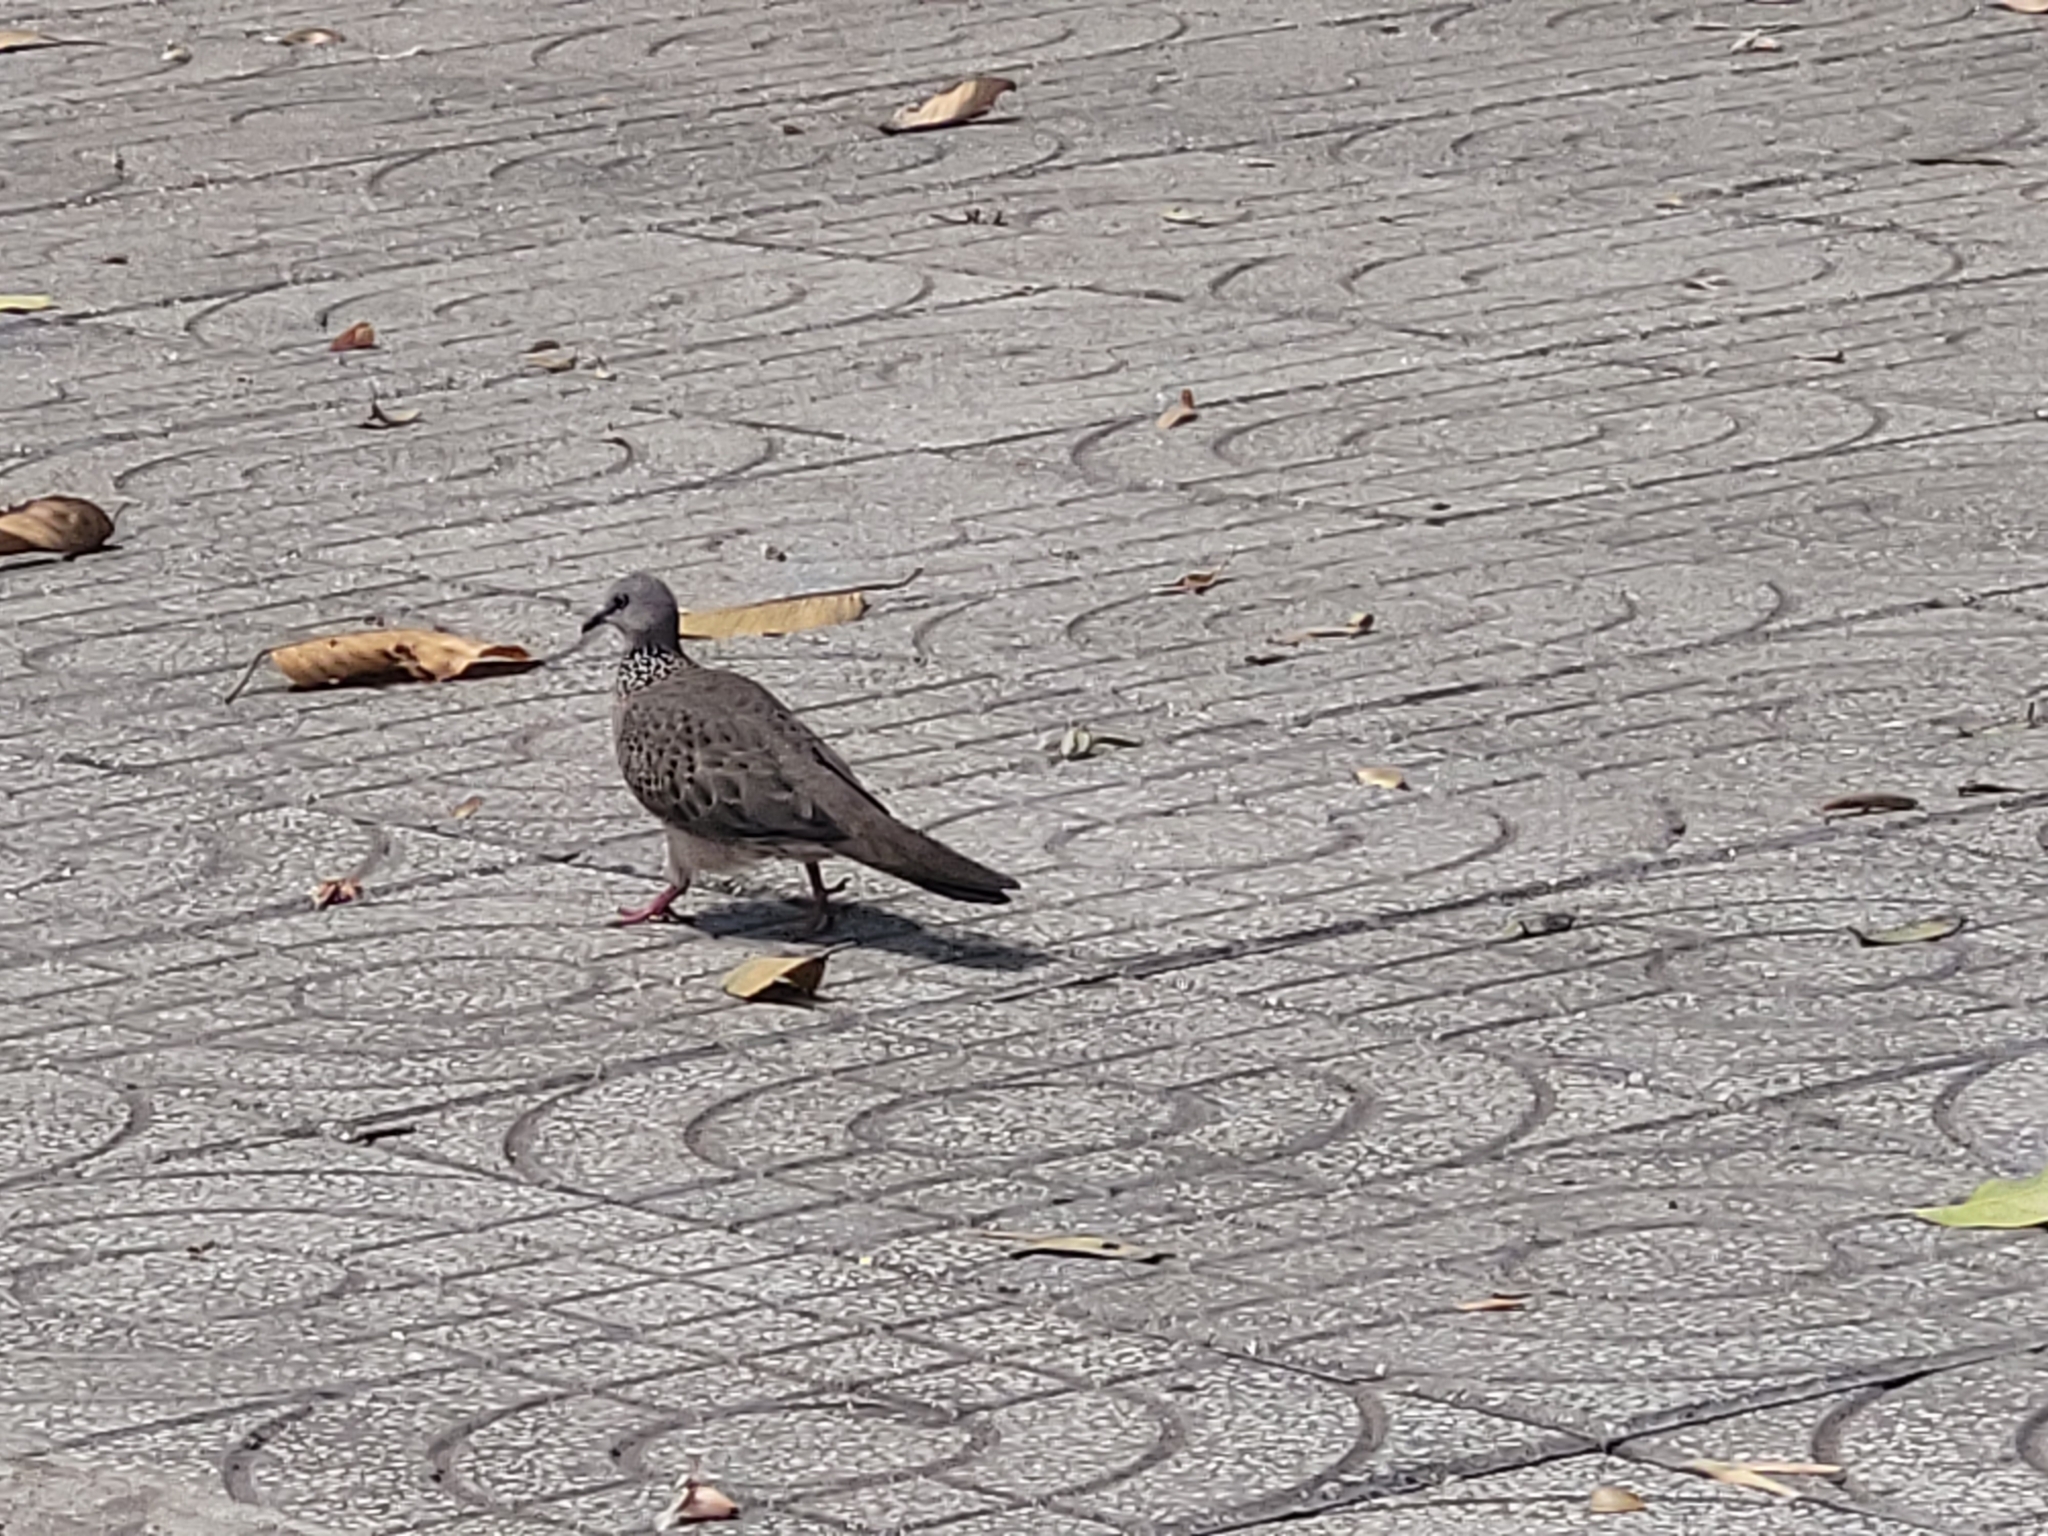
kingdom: Animalia
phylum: Chordata
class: Aves
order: Columbiformes
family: Columbidae
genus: Spilopelia
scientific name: Spilopelia chinensis
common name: Spotted dove
